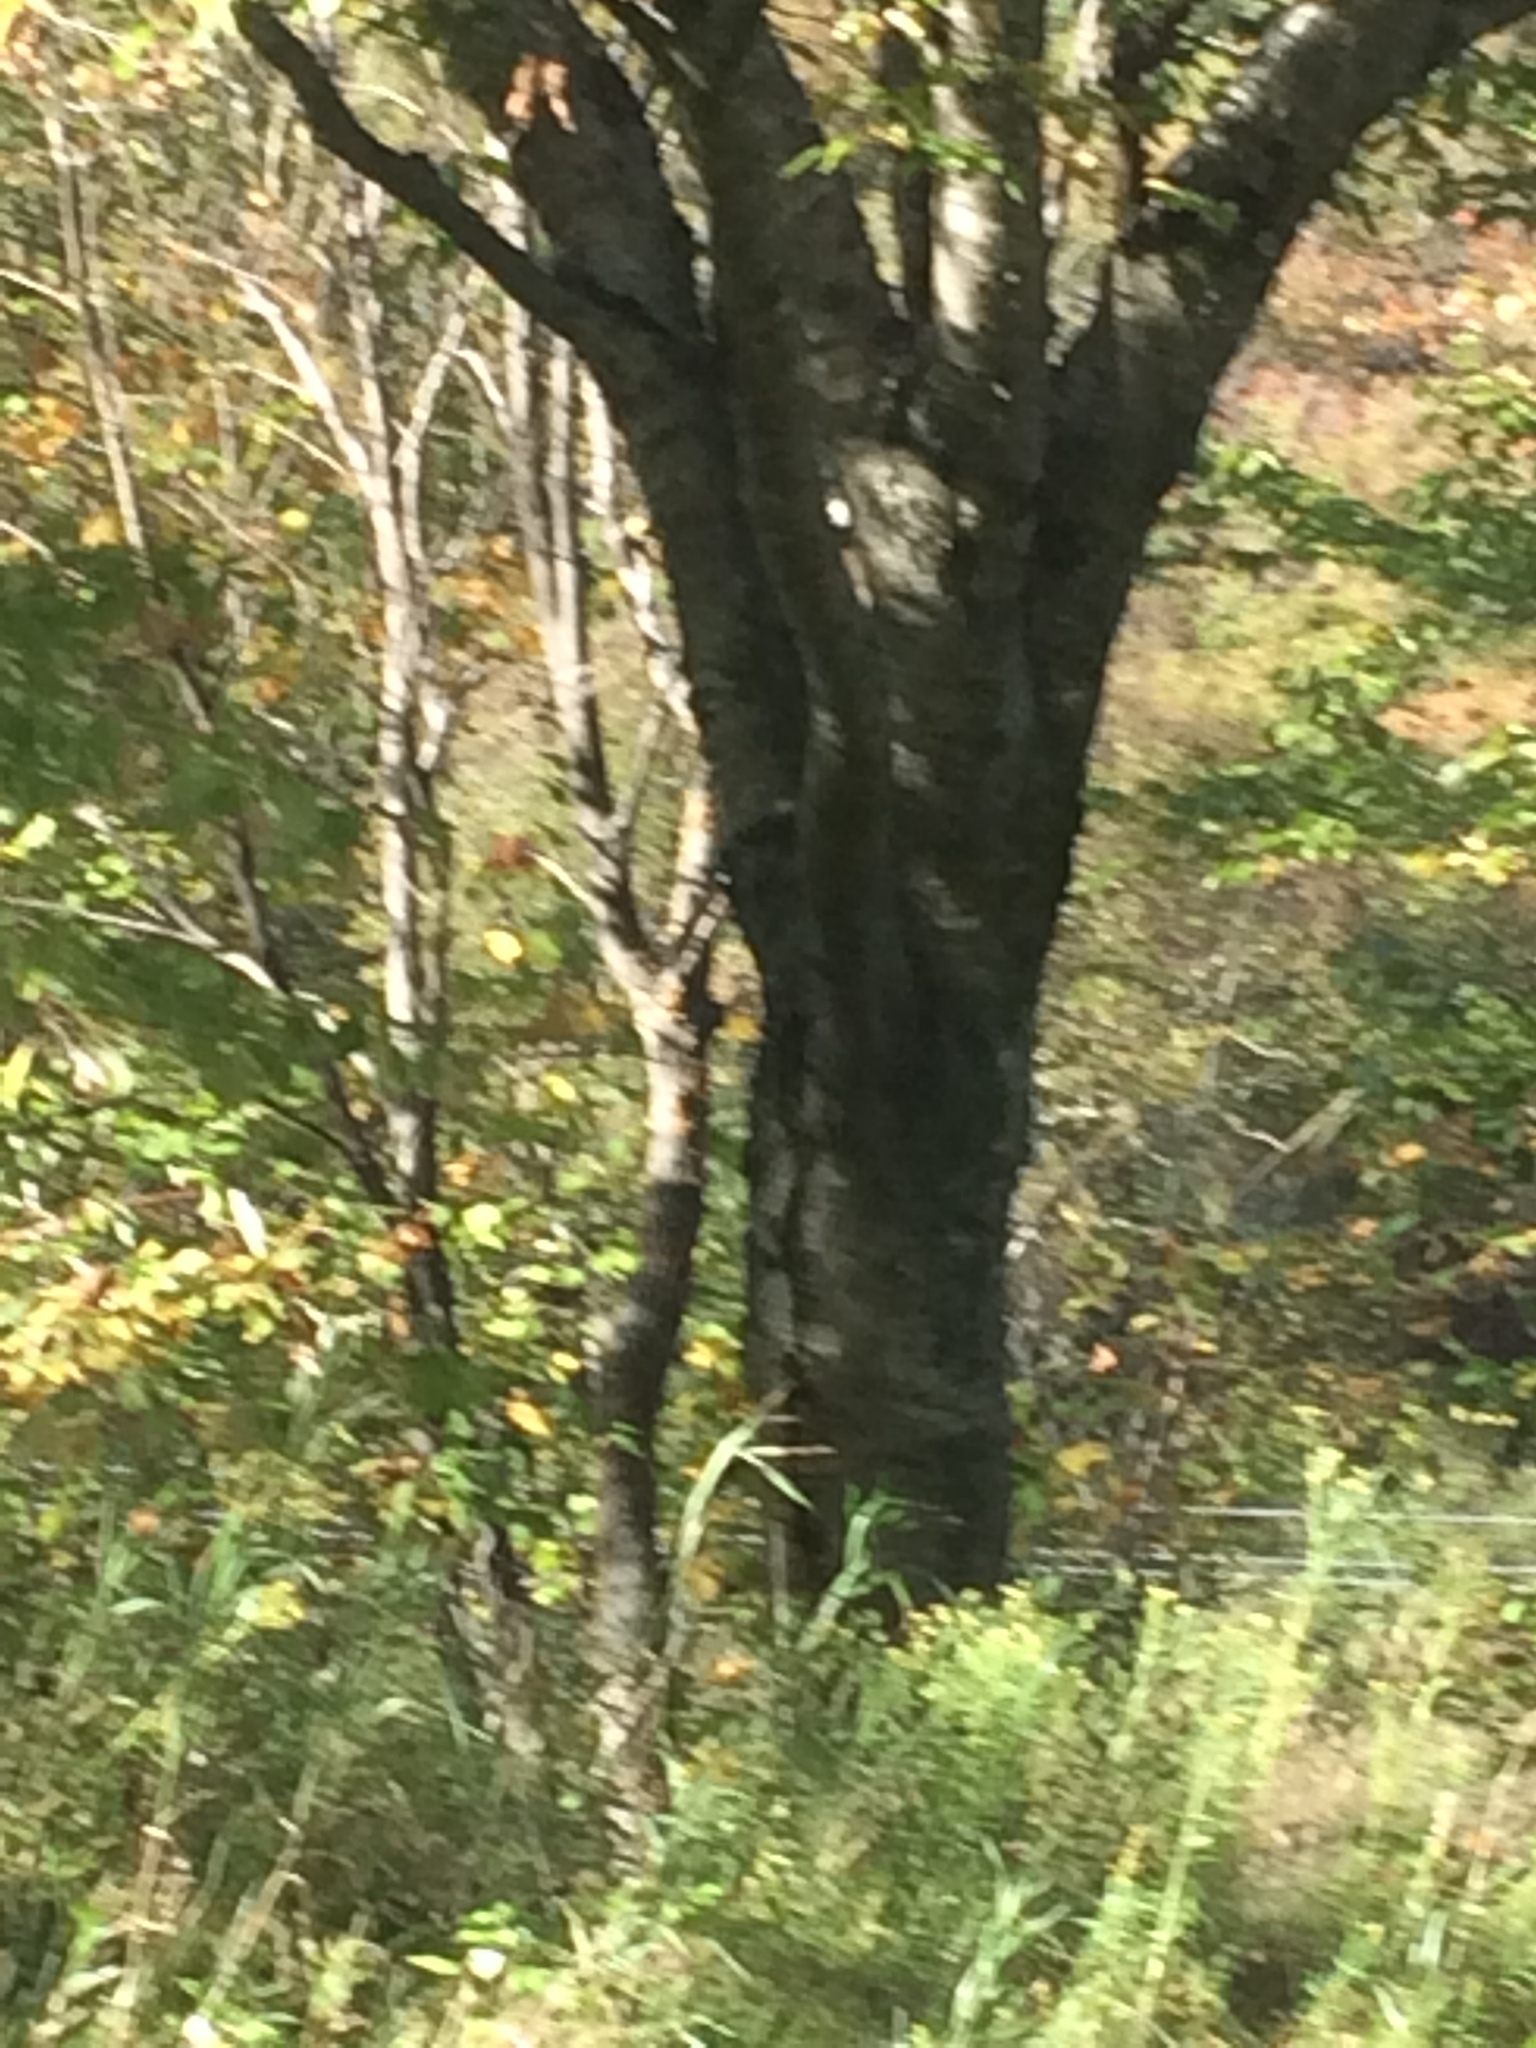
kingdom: Plantae
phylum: Tracheophyta
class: Magnoliopsida
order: Fagales
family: Betulaceae
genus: Betula
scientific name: Betula alleghaniensis
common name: Yellow birch
